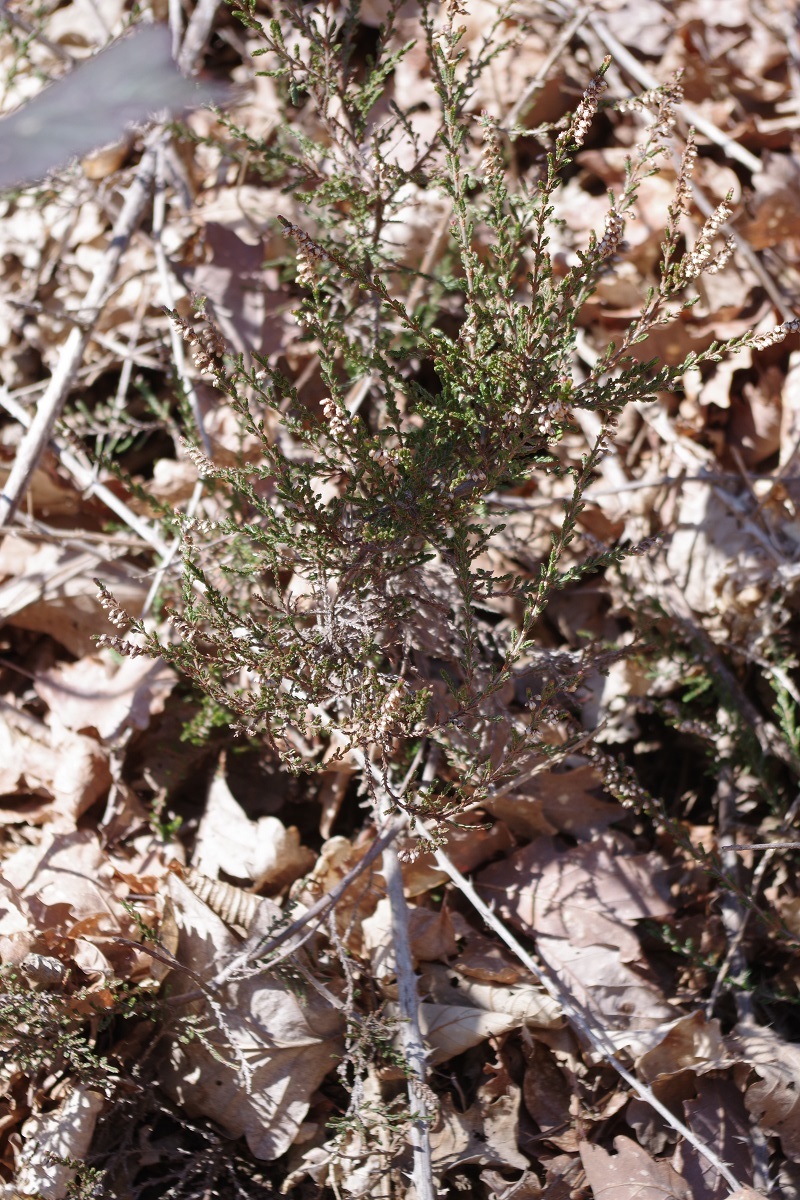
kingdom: Plantae
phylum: Tracheophyta
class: Magnoliopsida
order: Ericales
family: Ericaceae
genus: Calluna
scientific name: Calluna vulgaris
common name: Heather
